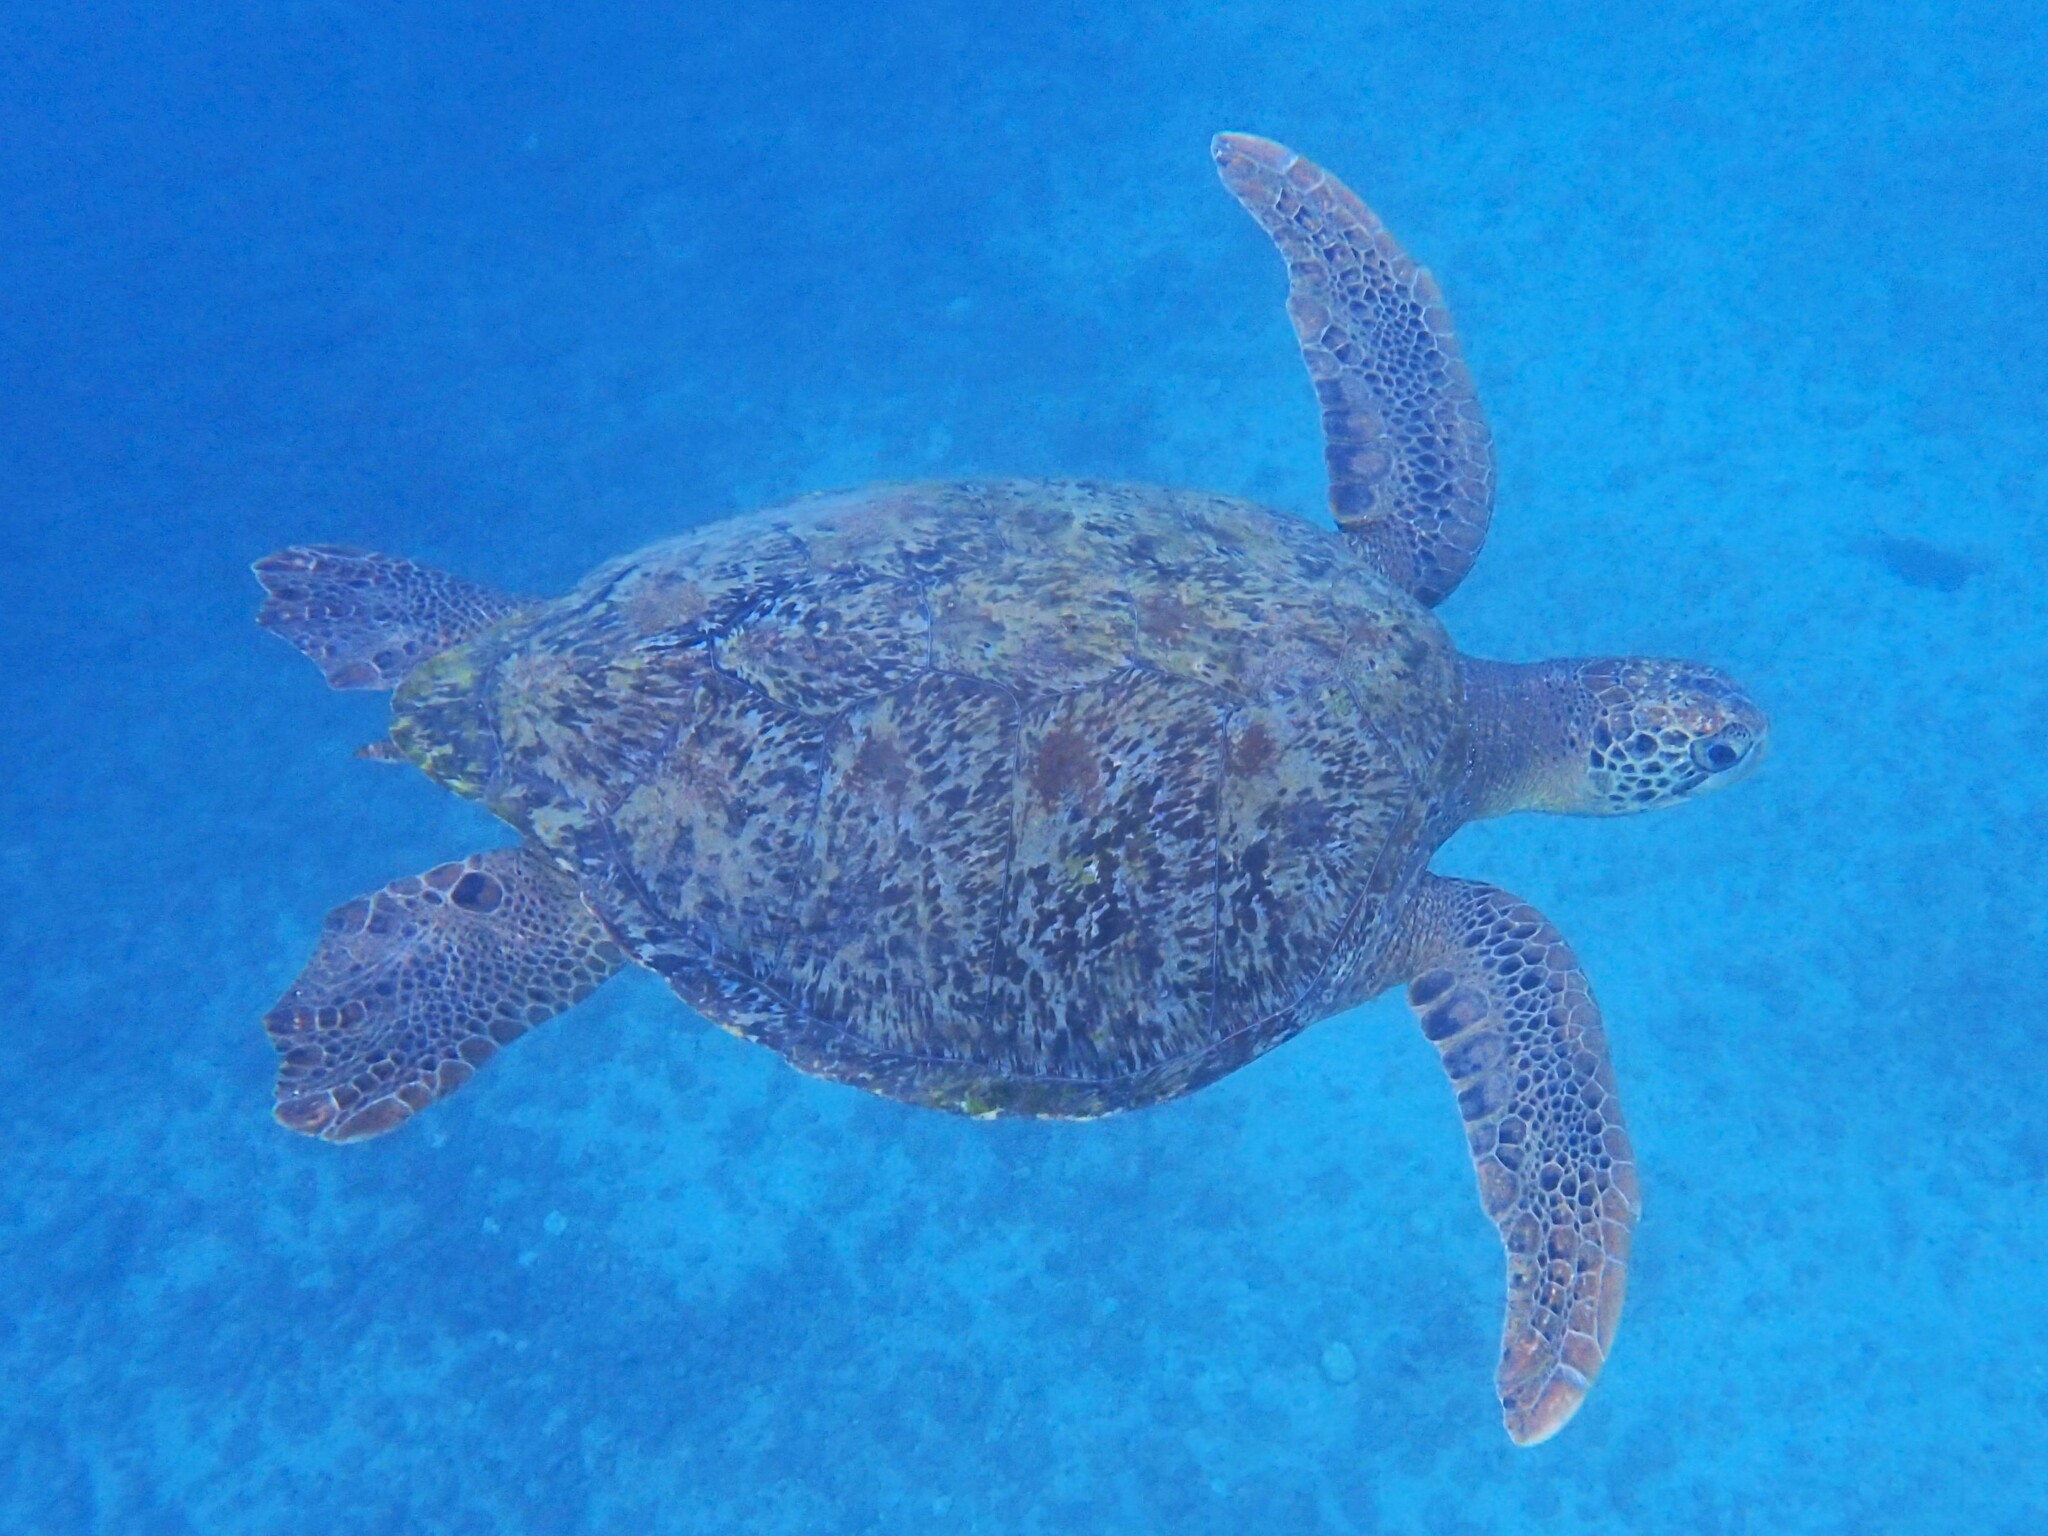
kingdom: Animalia
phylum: Chordata
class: Testudines
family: Cheloniidae
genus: Chelonia
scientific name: Chelonia mydas
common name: Green turtle
